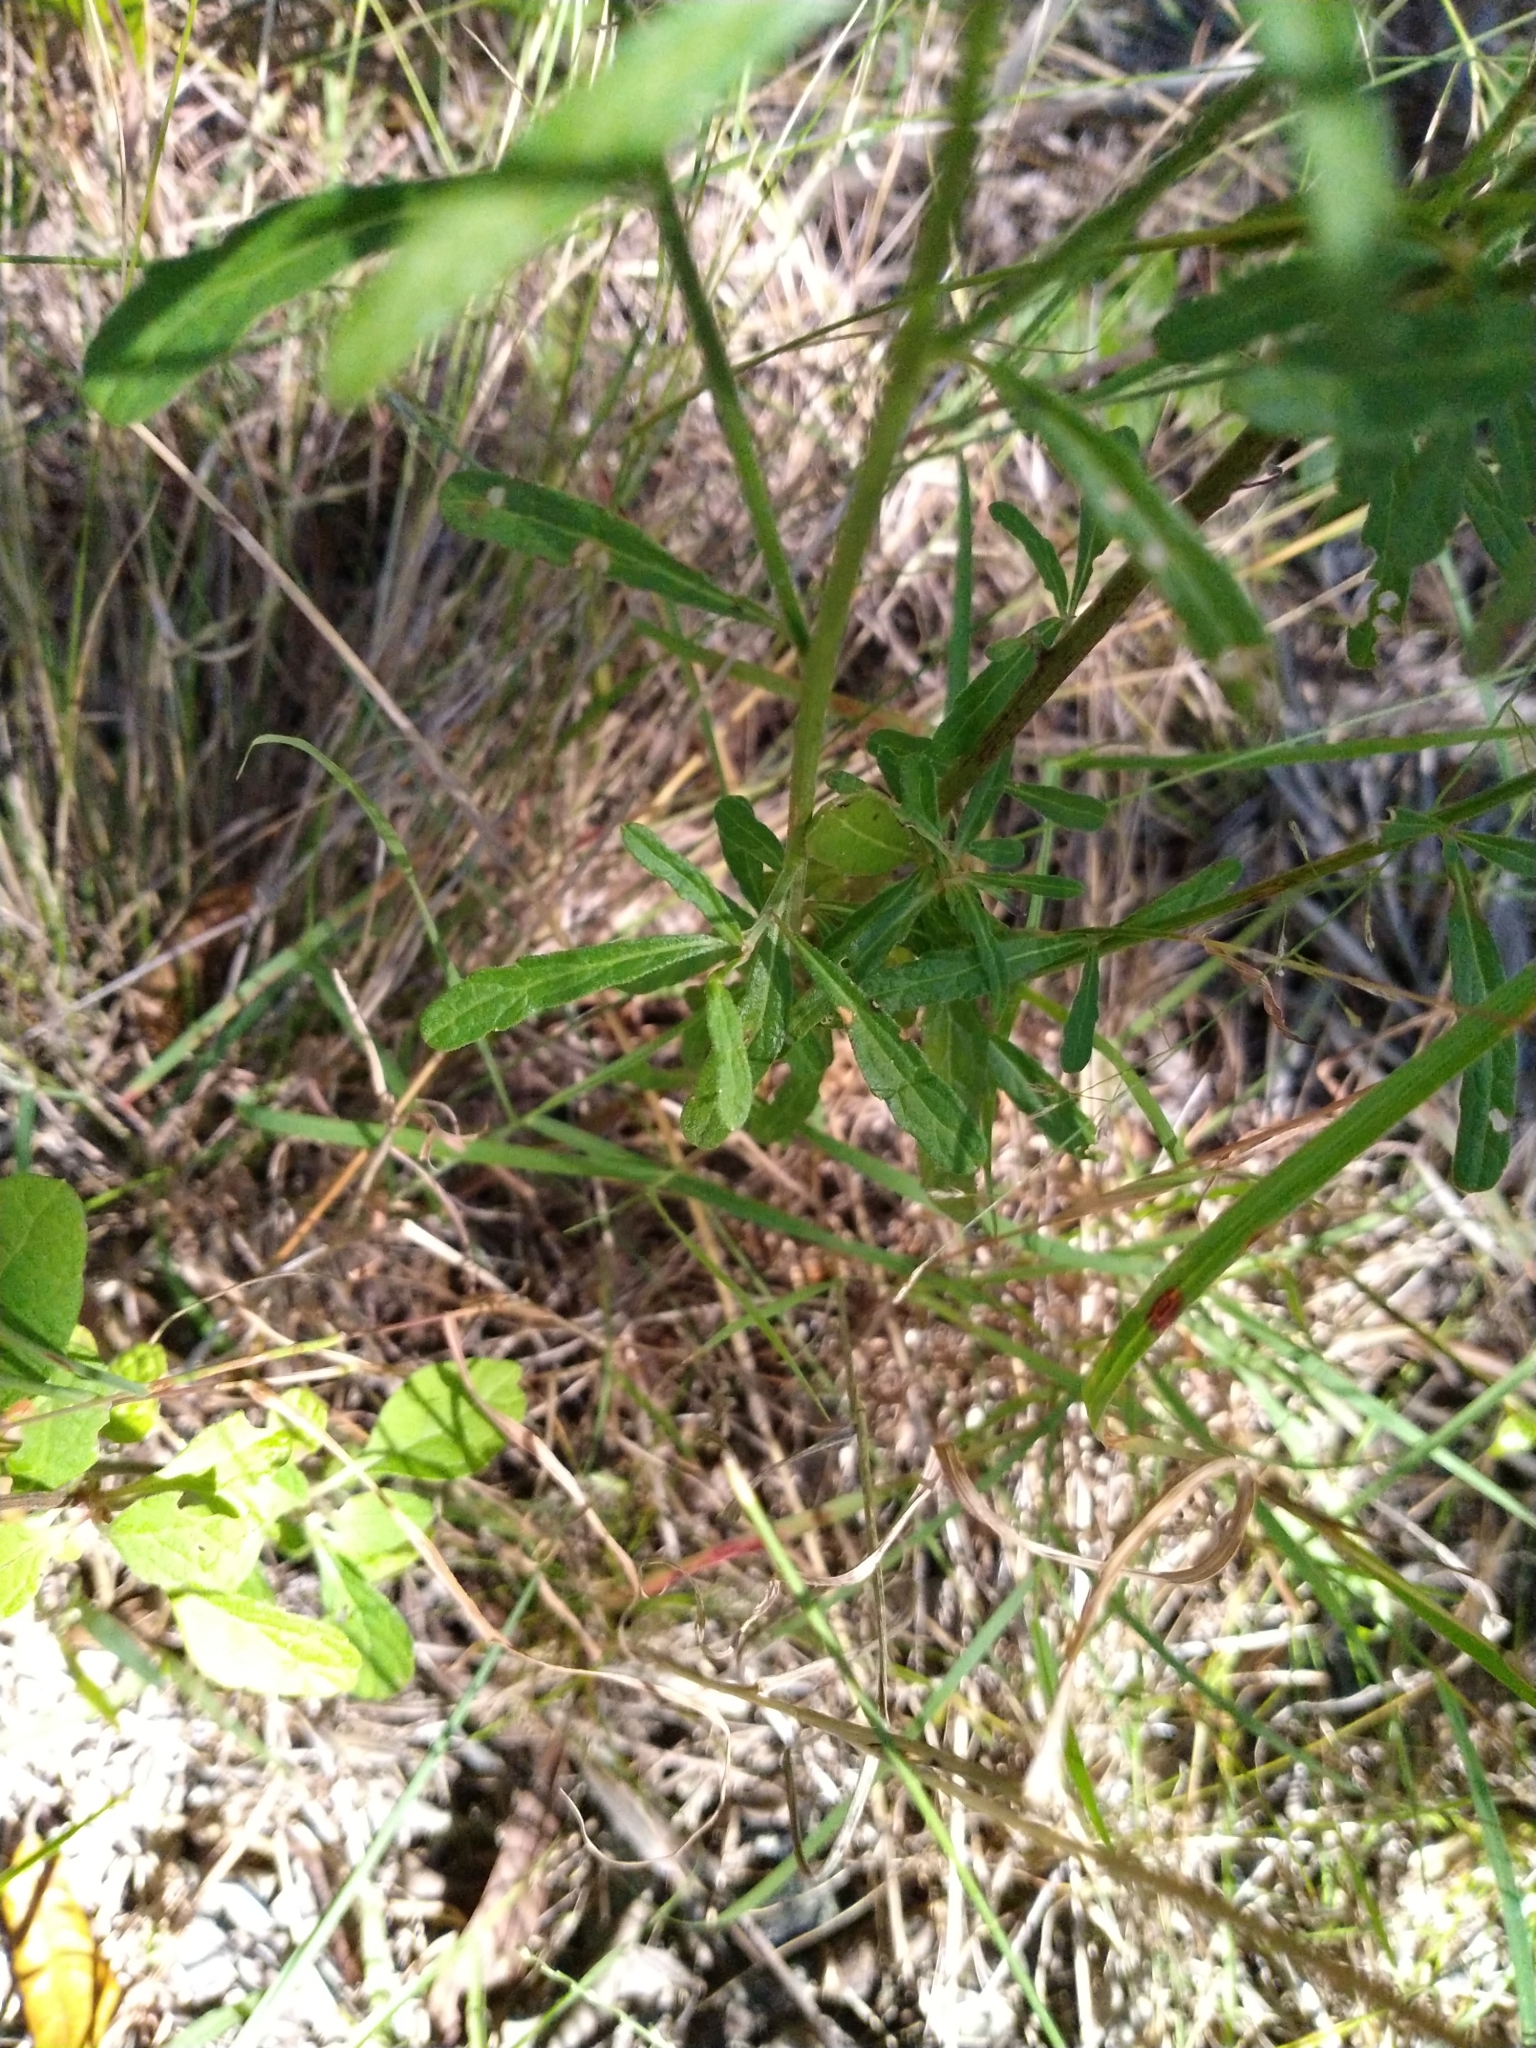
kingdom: Plantae
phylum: Tracheophyta
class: Magnoliopsida
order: Asterales
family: Asteraceae
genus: Cyanthillium
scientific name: Cyanthillium cinereum
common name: Little ironweed
